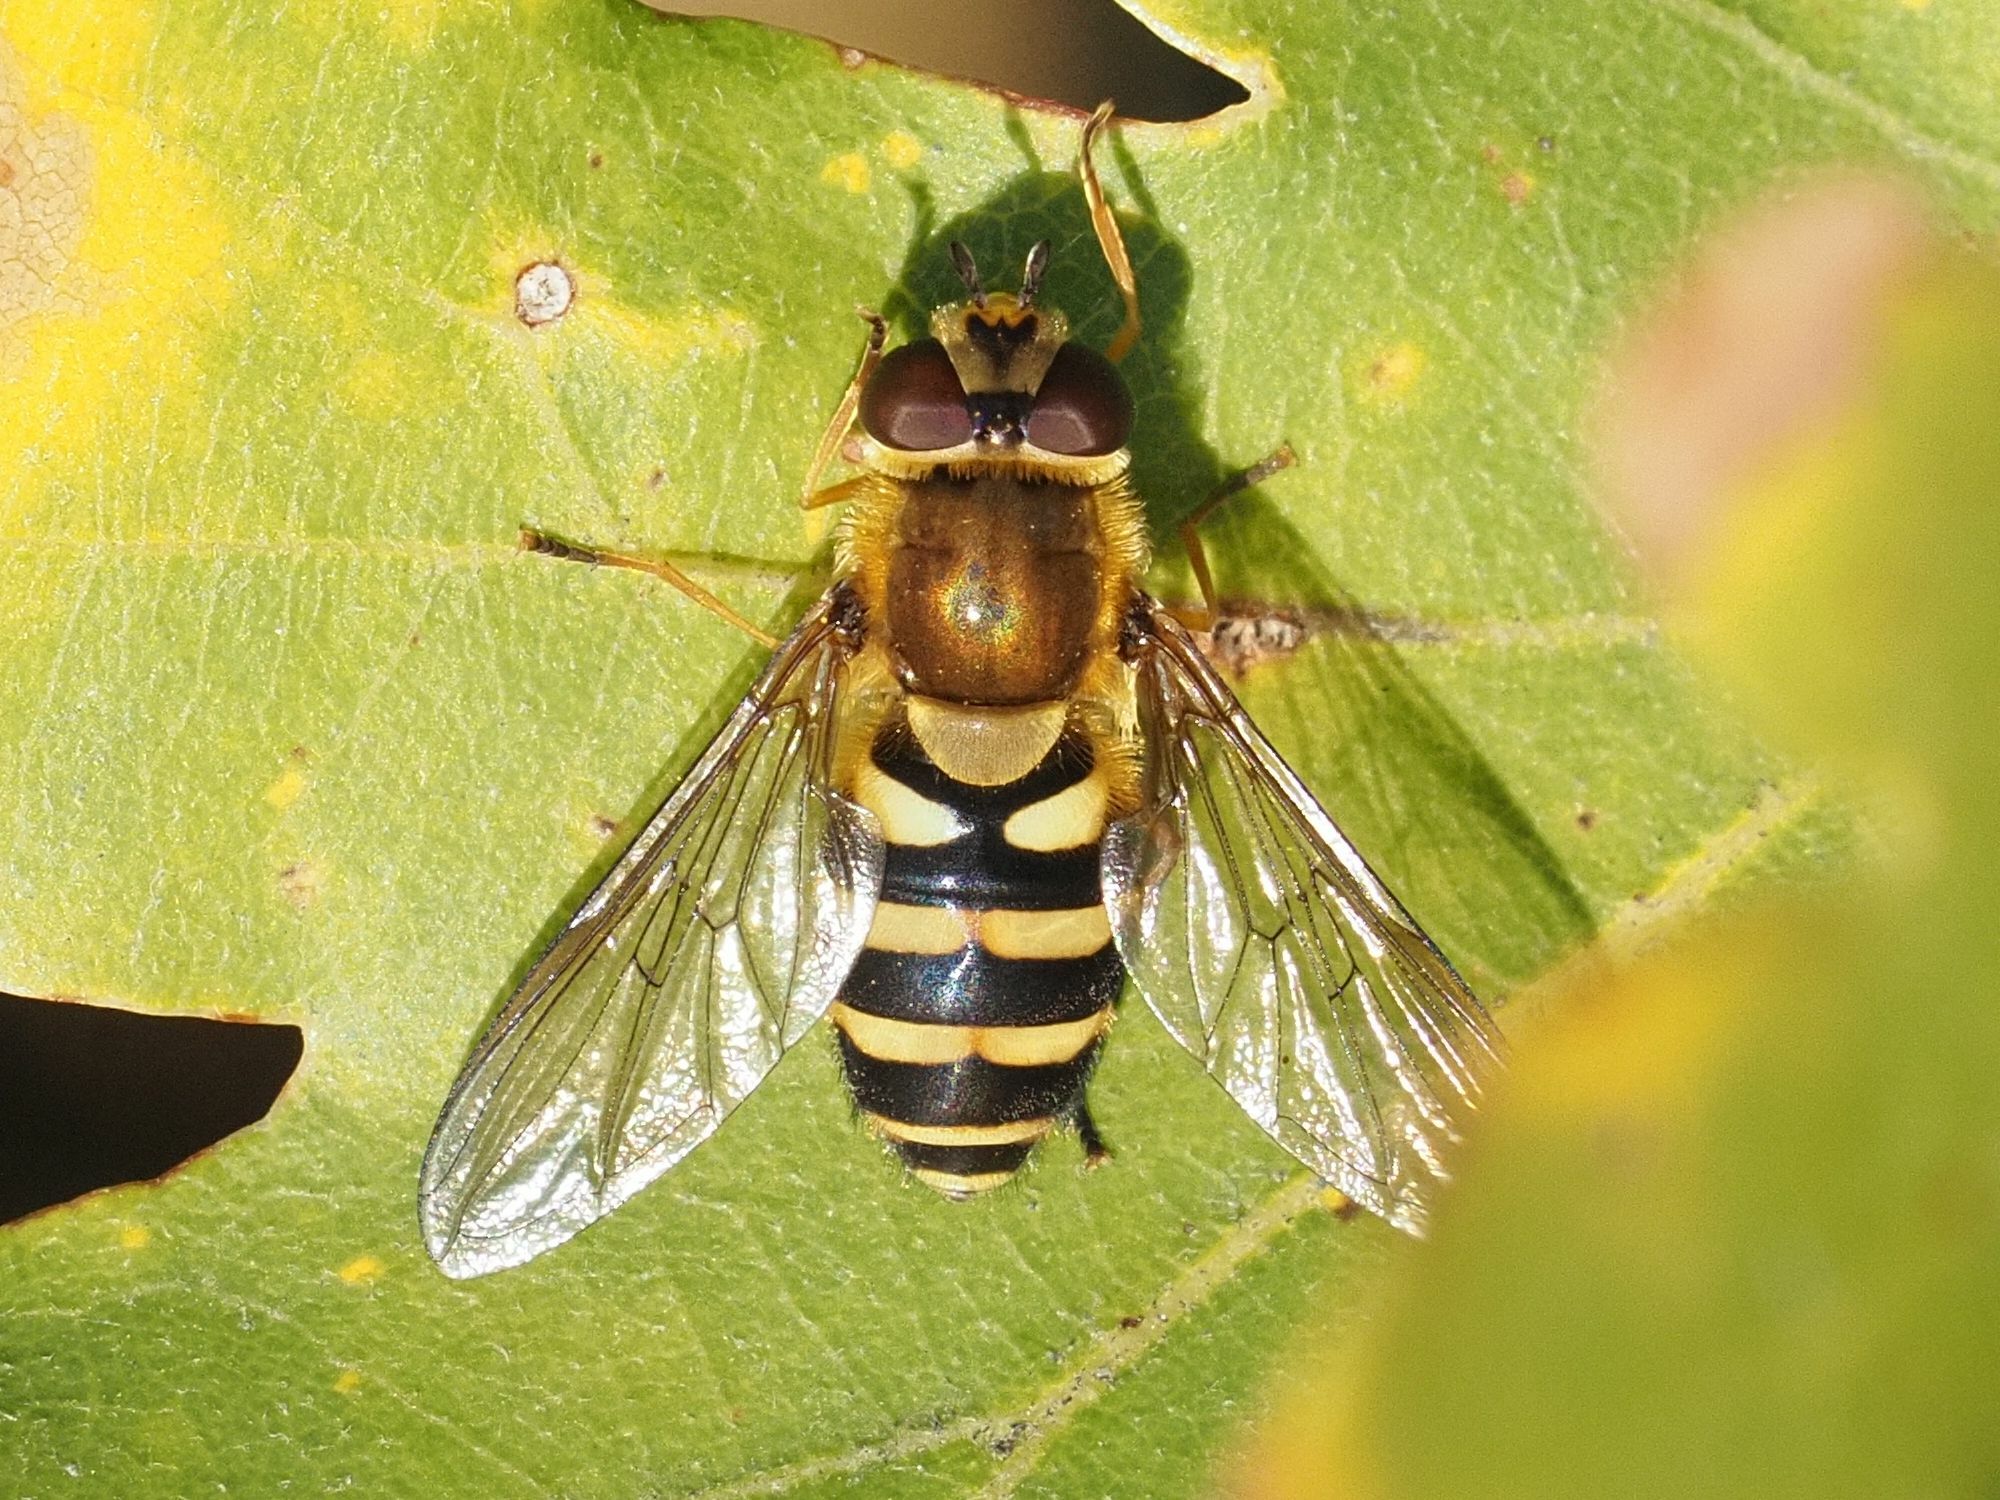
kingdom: Animalia
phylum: Arthropoda
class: Insecta
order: Diptera
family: Syrphidae
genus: Syrphus
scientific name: Syrphus
